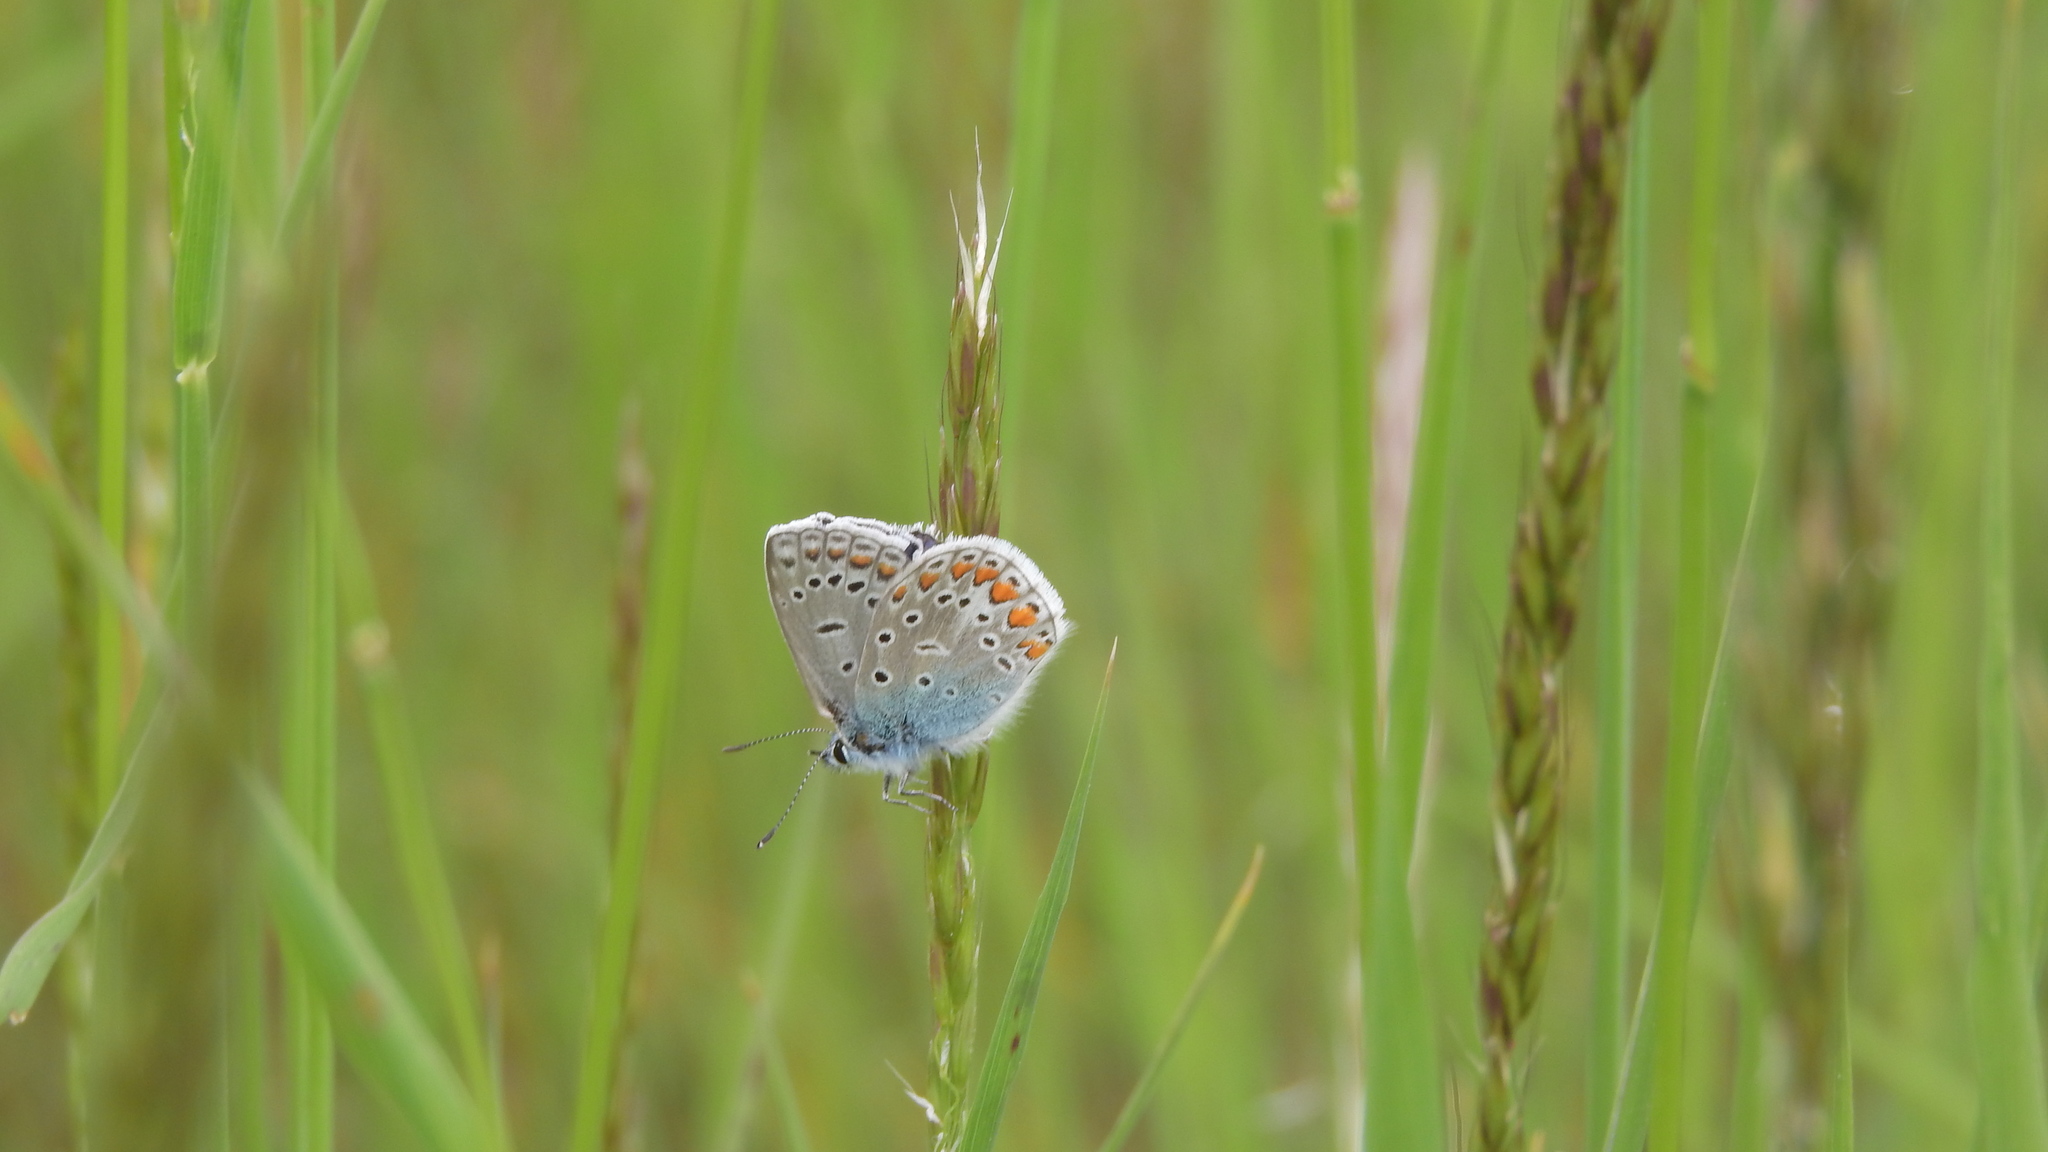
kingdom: Animalia
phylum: Arthropoda
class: Insecta
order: Lepidoptera
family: Lycaenidae
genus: Polyommatus
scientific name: Polyommatus icarus
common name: Common blue
